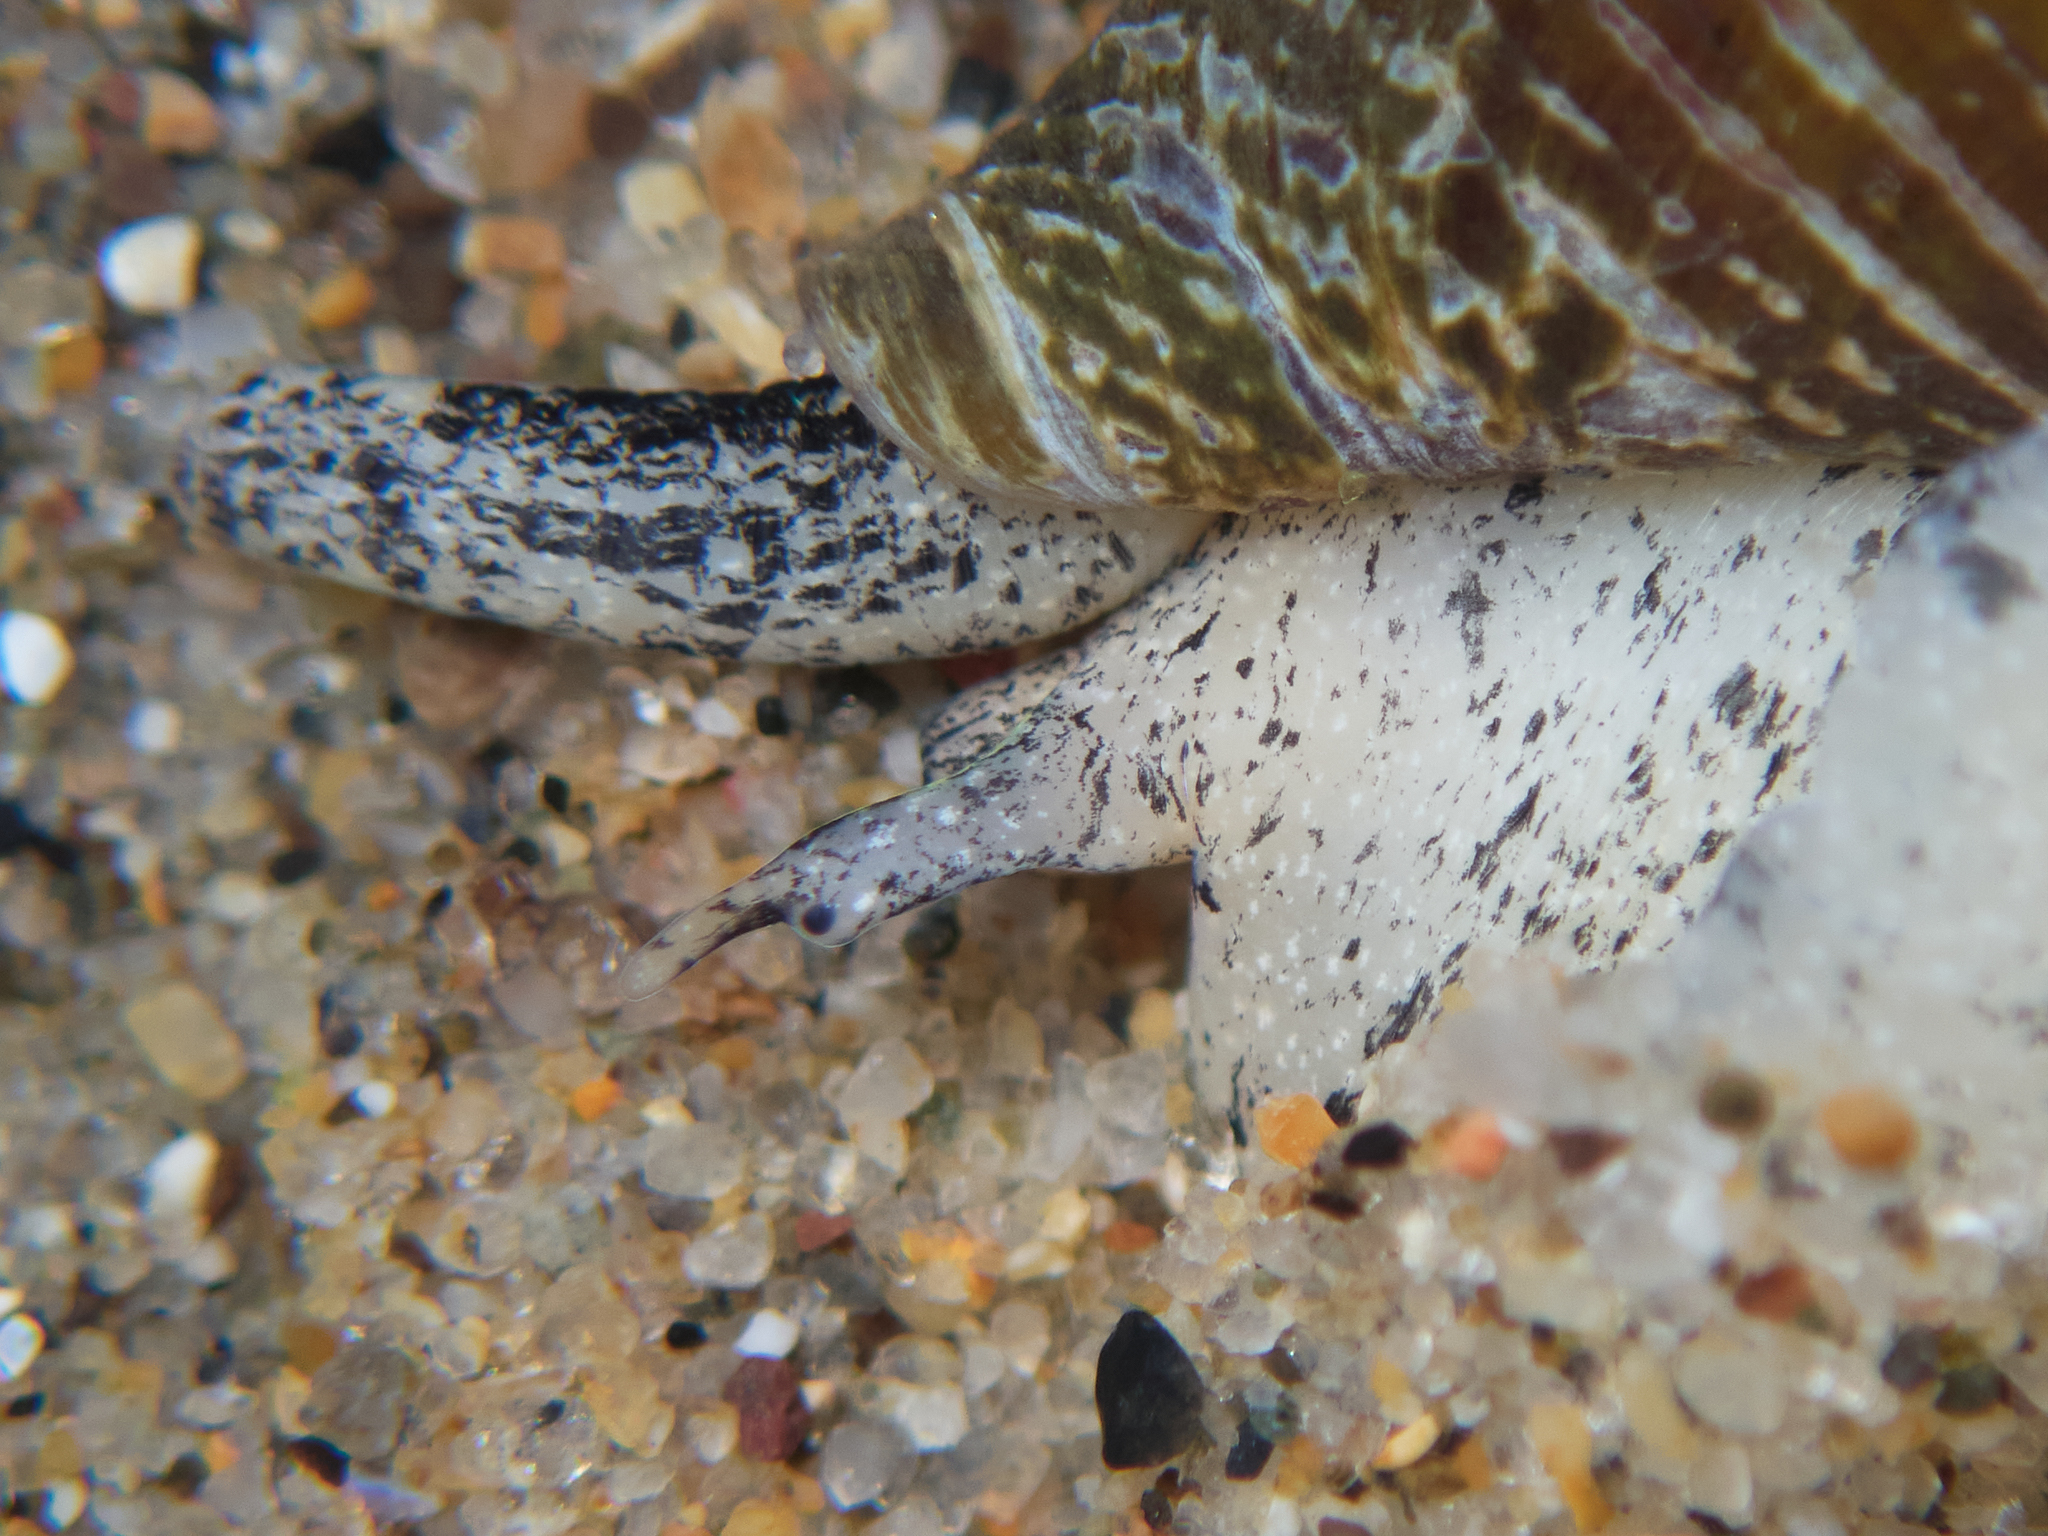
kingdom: Animalia
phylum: Mollusca
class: Gastropoda
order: Neogastropoda
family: Conidae
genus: Californiconus
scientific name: Californiconus californicus
